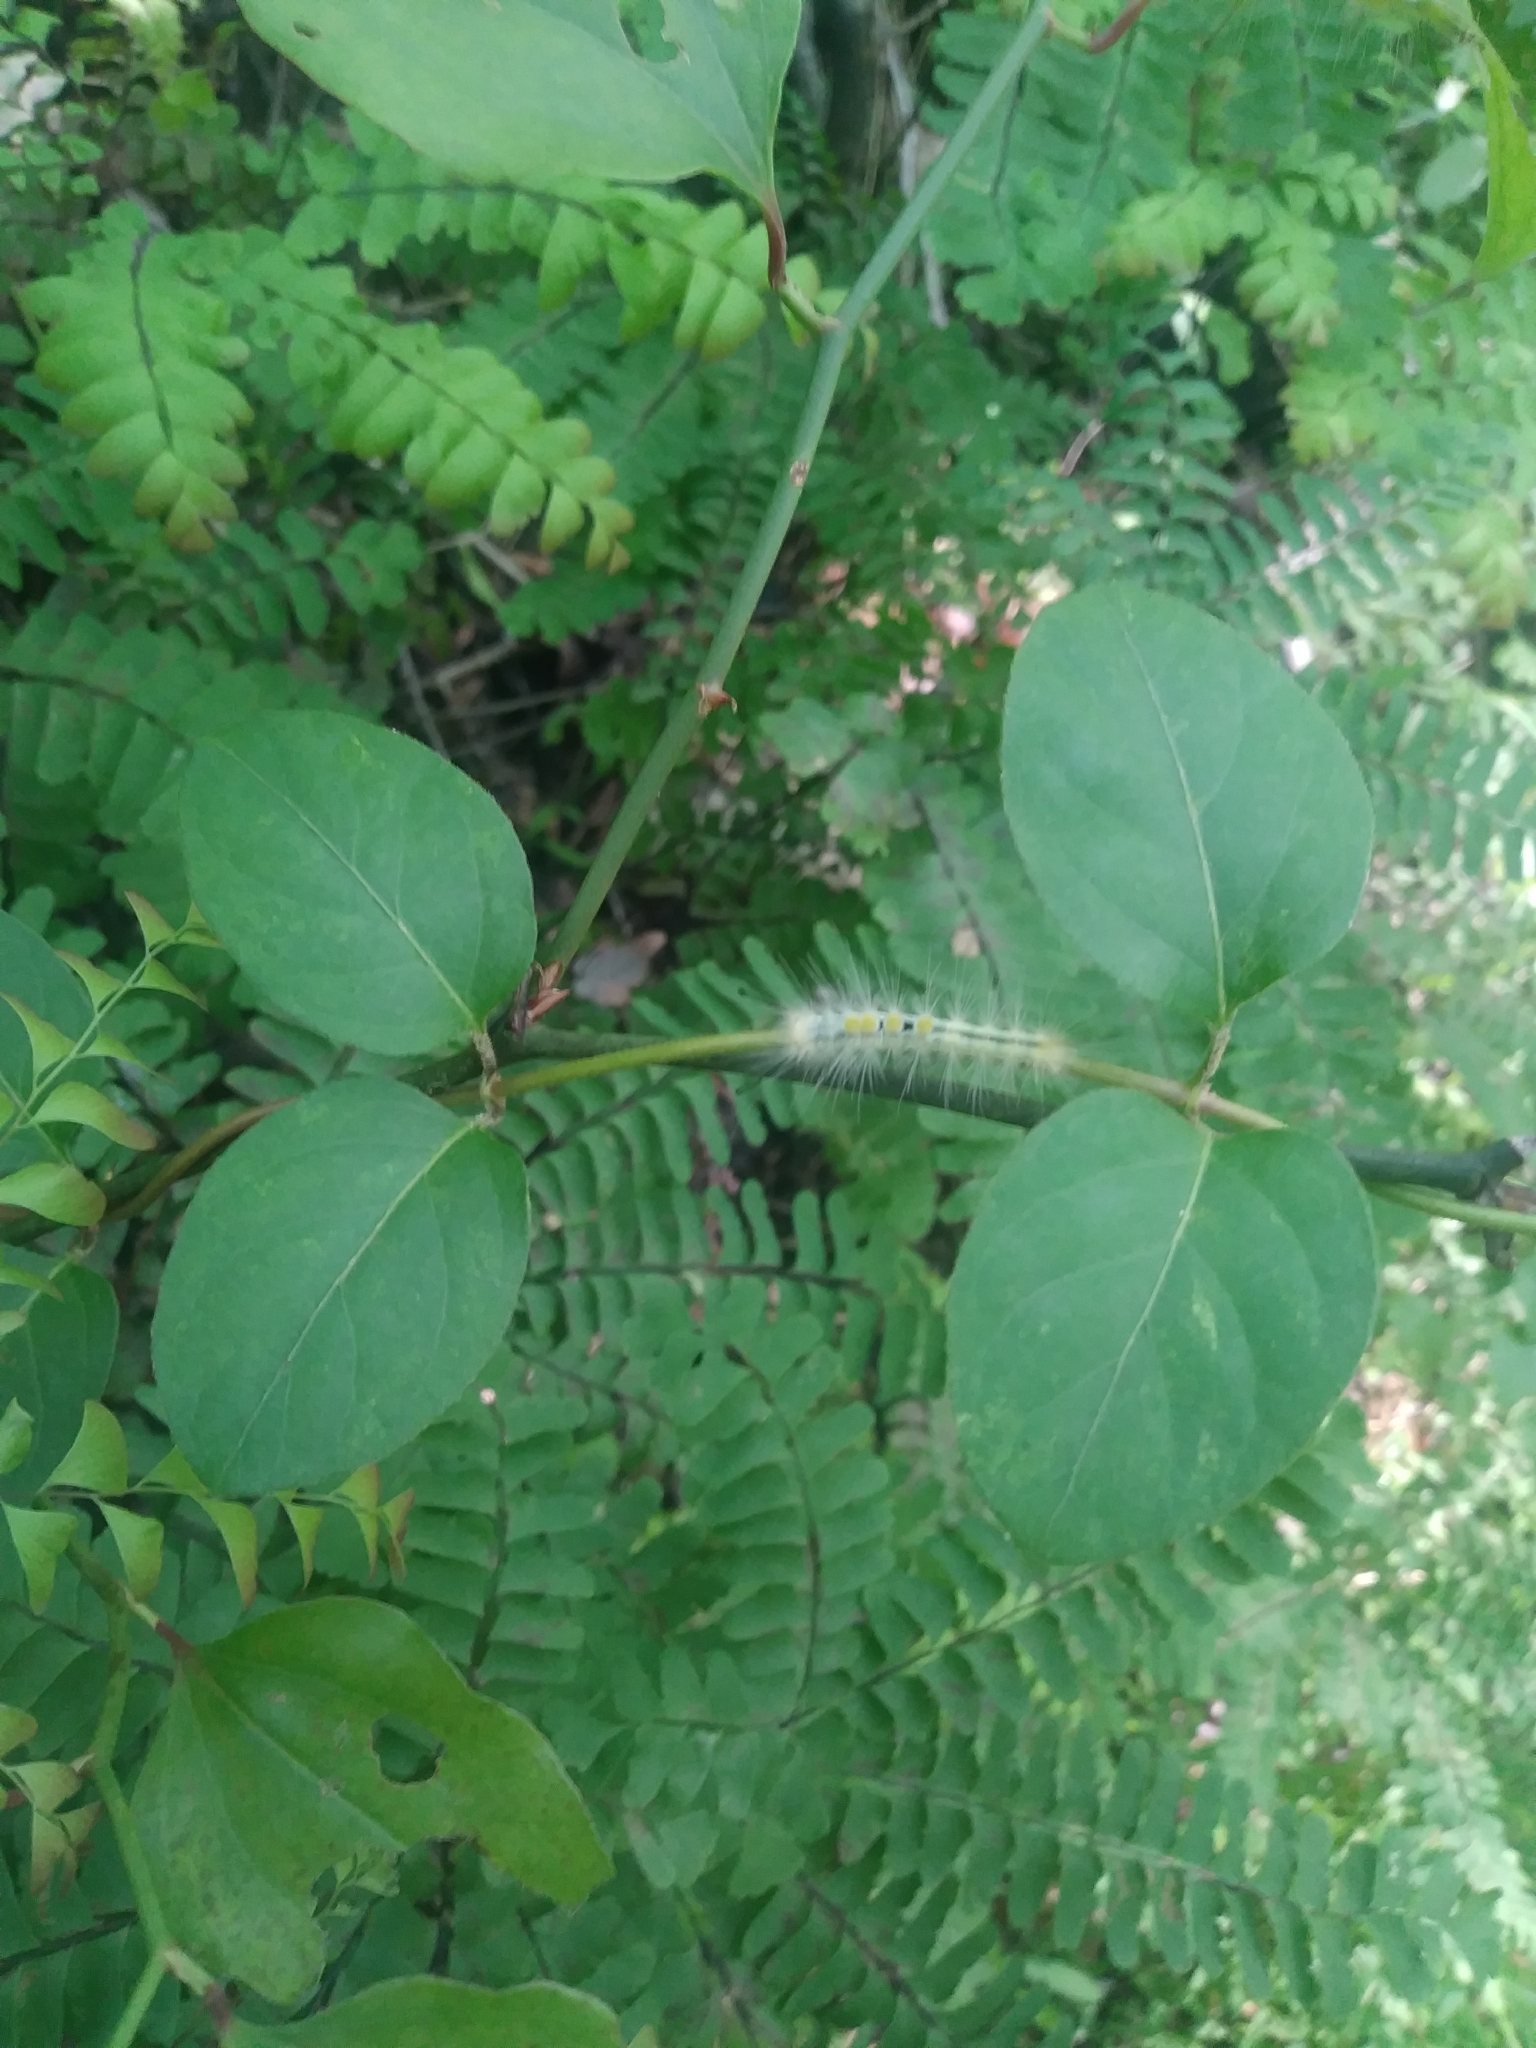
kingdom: Animalia
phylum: Arthropoda
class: Insecta
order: Lepidoptera
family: Erebidae
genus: Orgyia
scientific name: Orgyia definita
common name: Definite tussock moth
